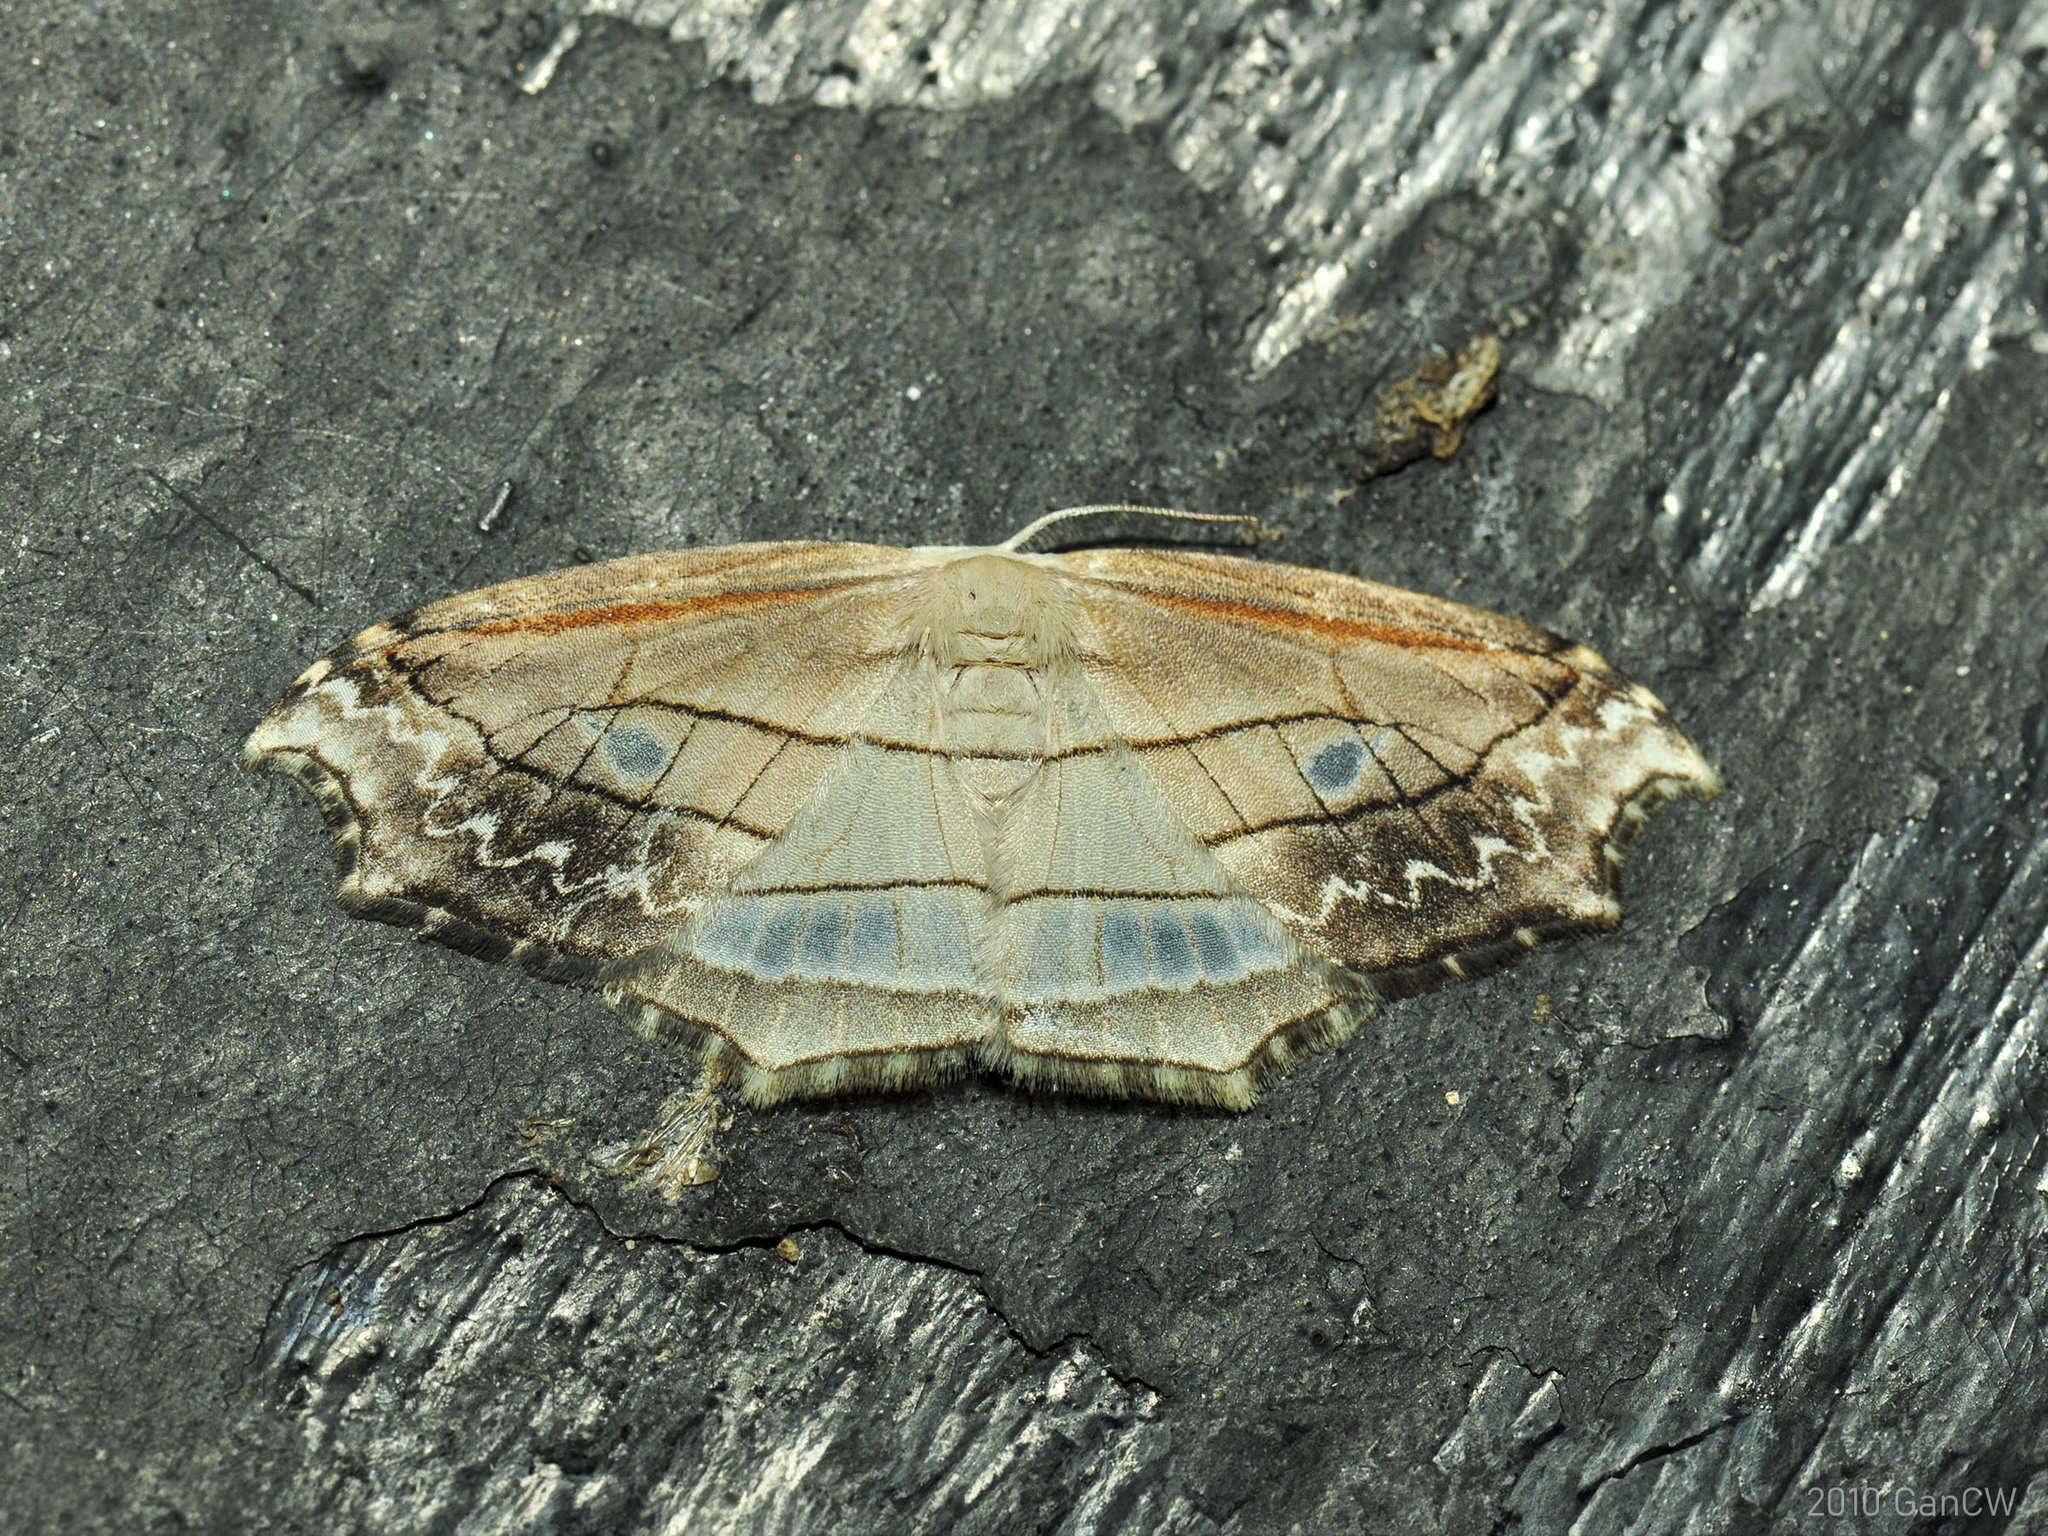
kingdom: Animalia
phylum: Arthropoda
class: Insecta
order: Lepidoptera
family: Drepanidae
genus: Leucoblepsis
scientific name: Leucoblepsis excisa
